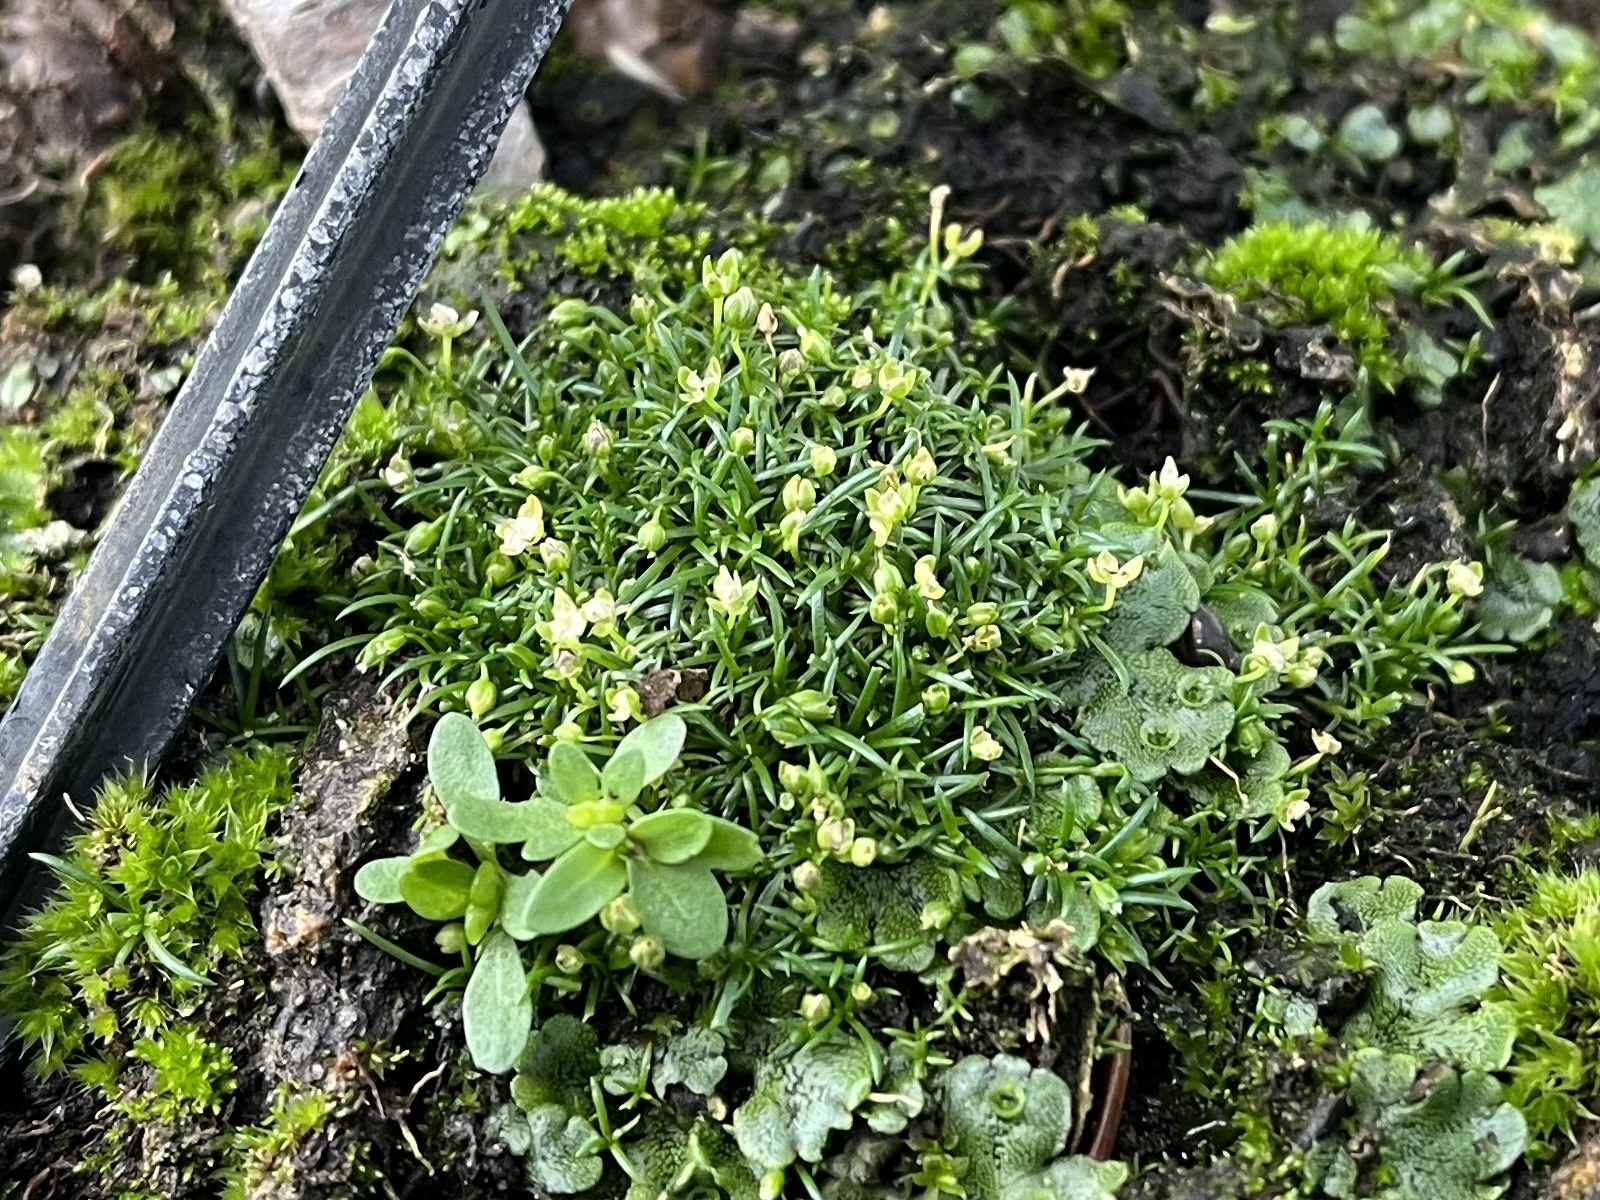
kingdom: Plantae
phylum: Tracheophyta
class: Magnoliopsida
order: Caryophyllales
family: Caryophyllaceae
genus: Sagina
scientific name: Sagina procumbens
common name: Procumbent pearlwort
